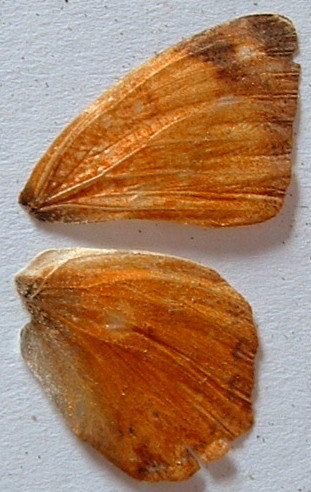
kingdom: Animalia
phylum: Arthropoda
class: Insecta
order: Lepidoptera
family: Nymphalidae
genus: Nica
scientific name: Nica flavilla
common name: Mandarin nica
